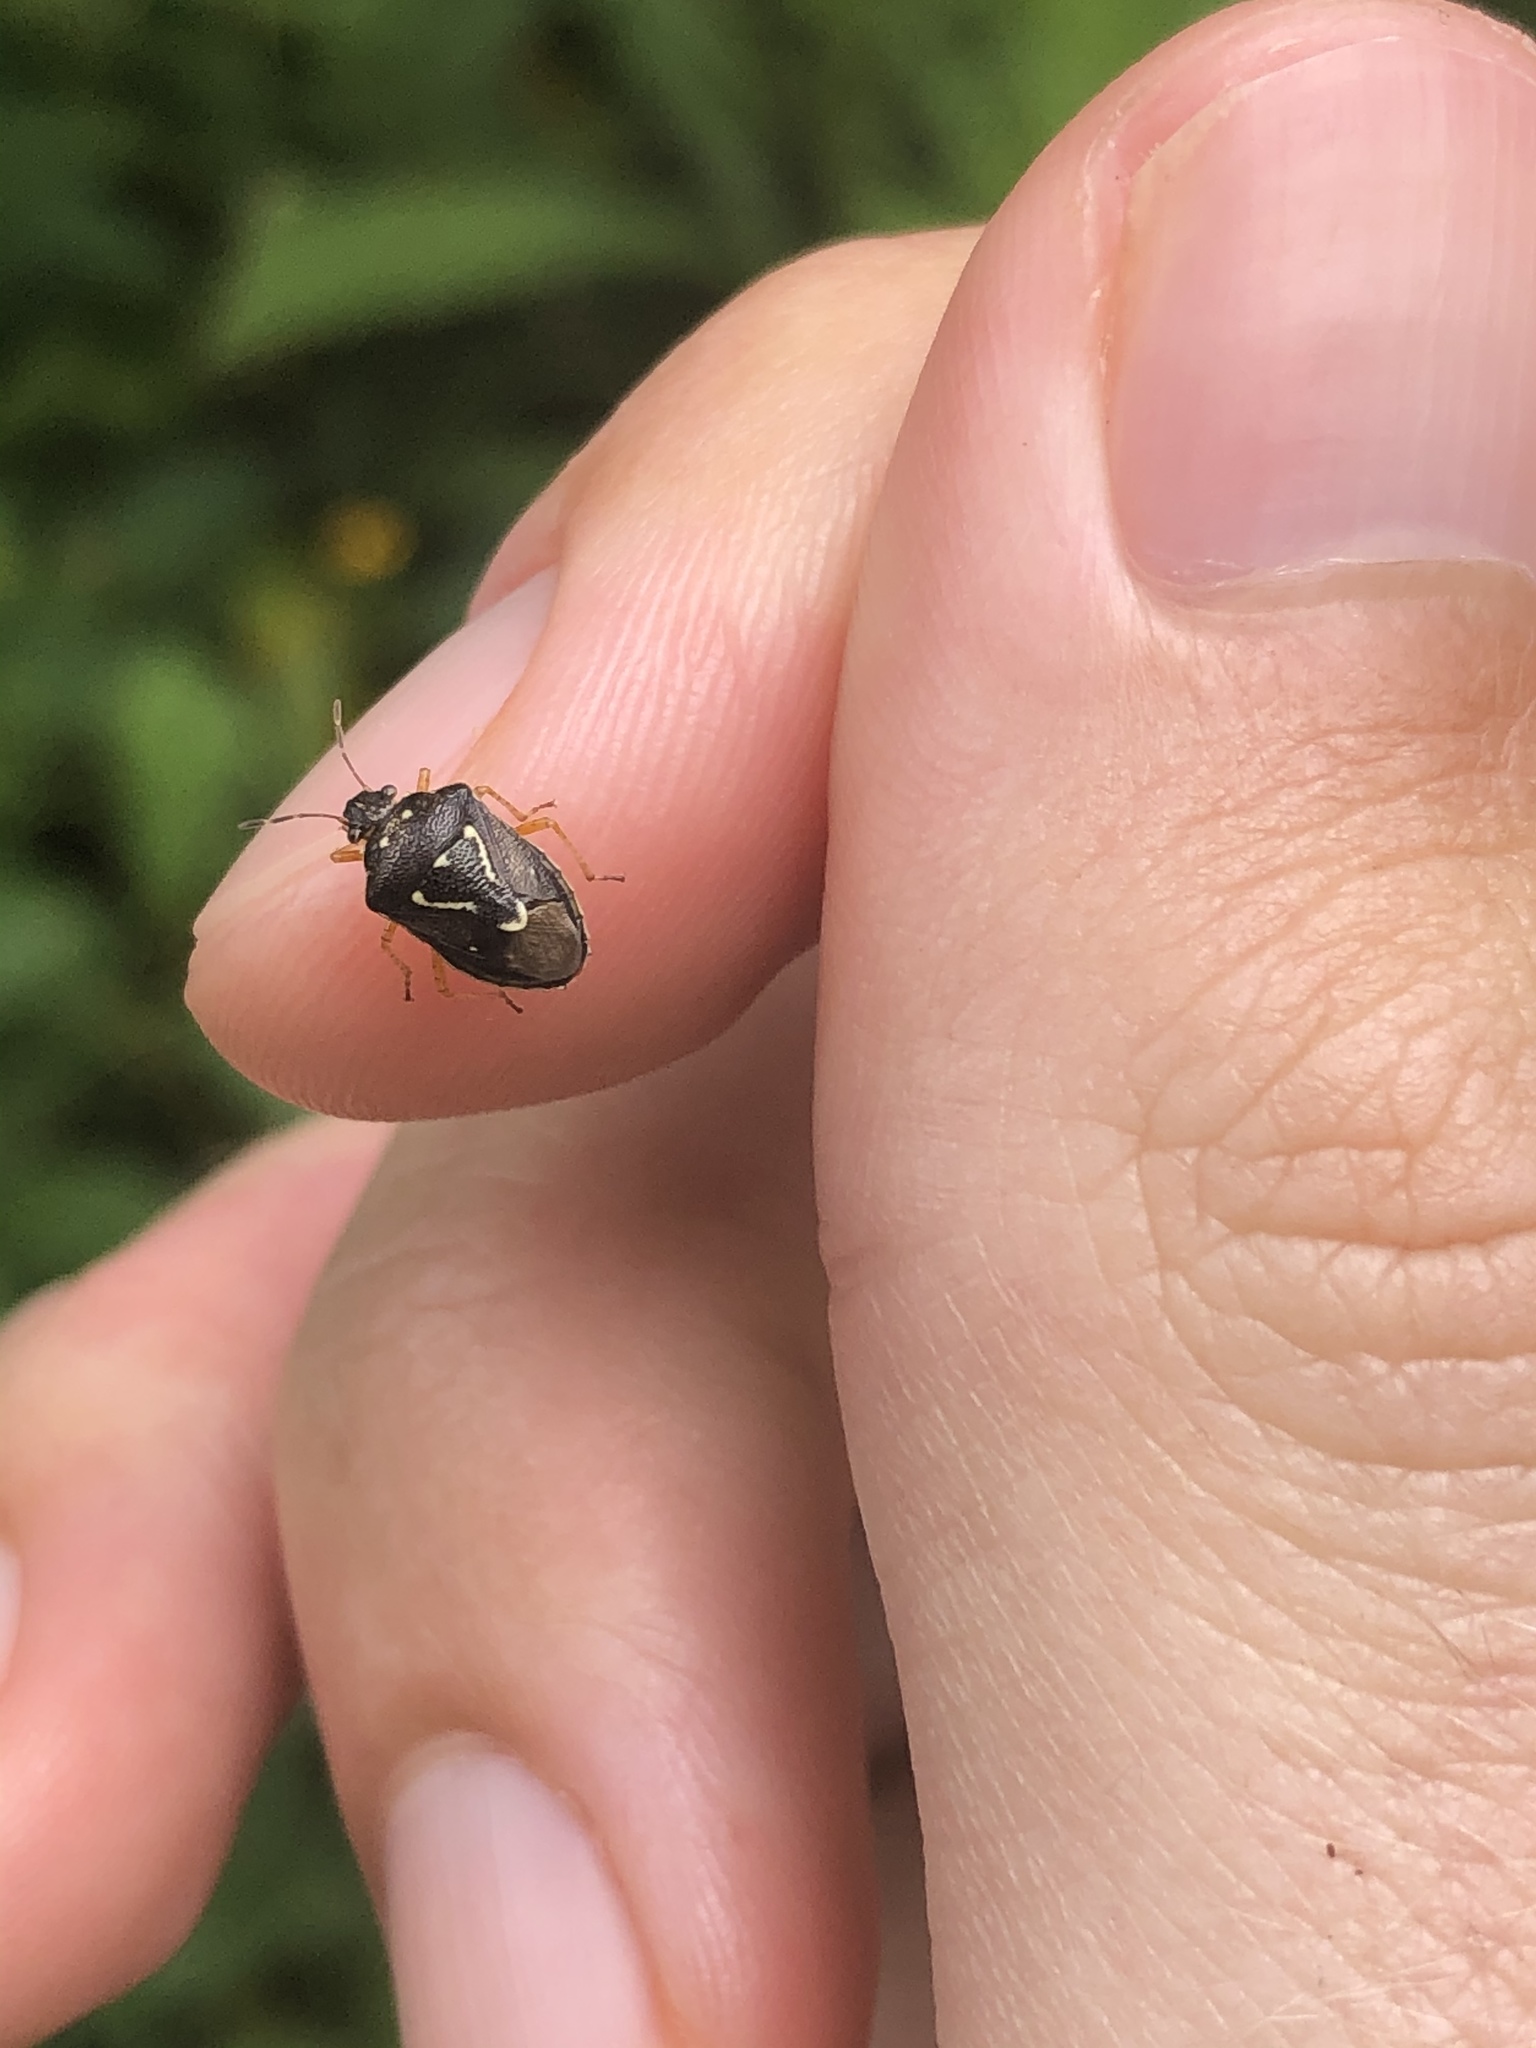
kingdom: Animalia
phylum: Arthropoda
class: Insecta
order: Hemiptera
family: Pentatomidae
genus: Mormidea
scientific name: Mormidea pama
